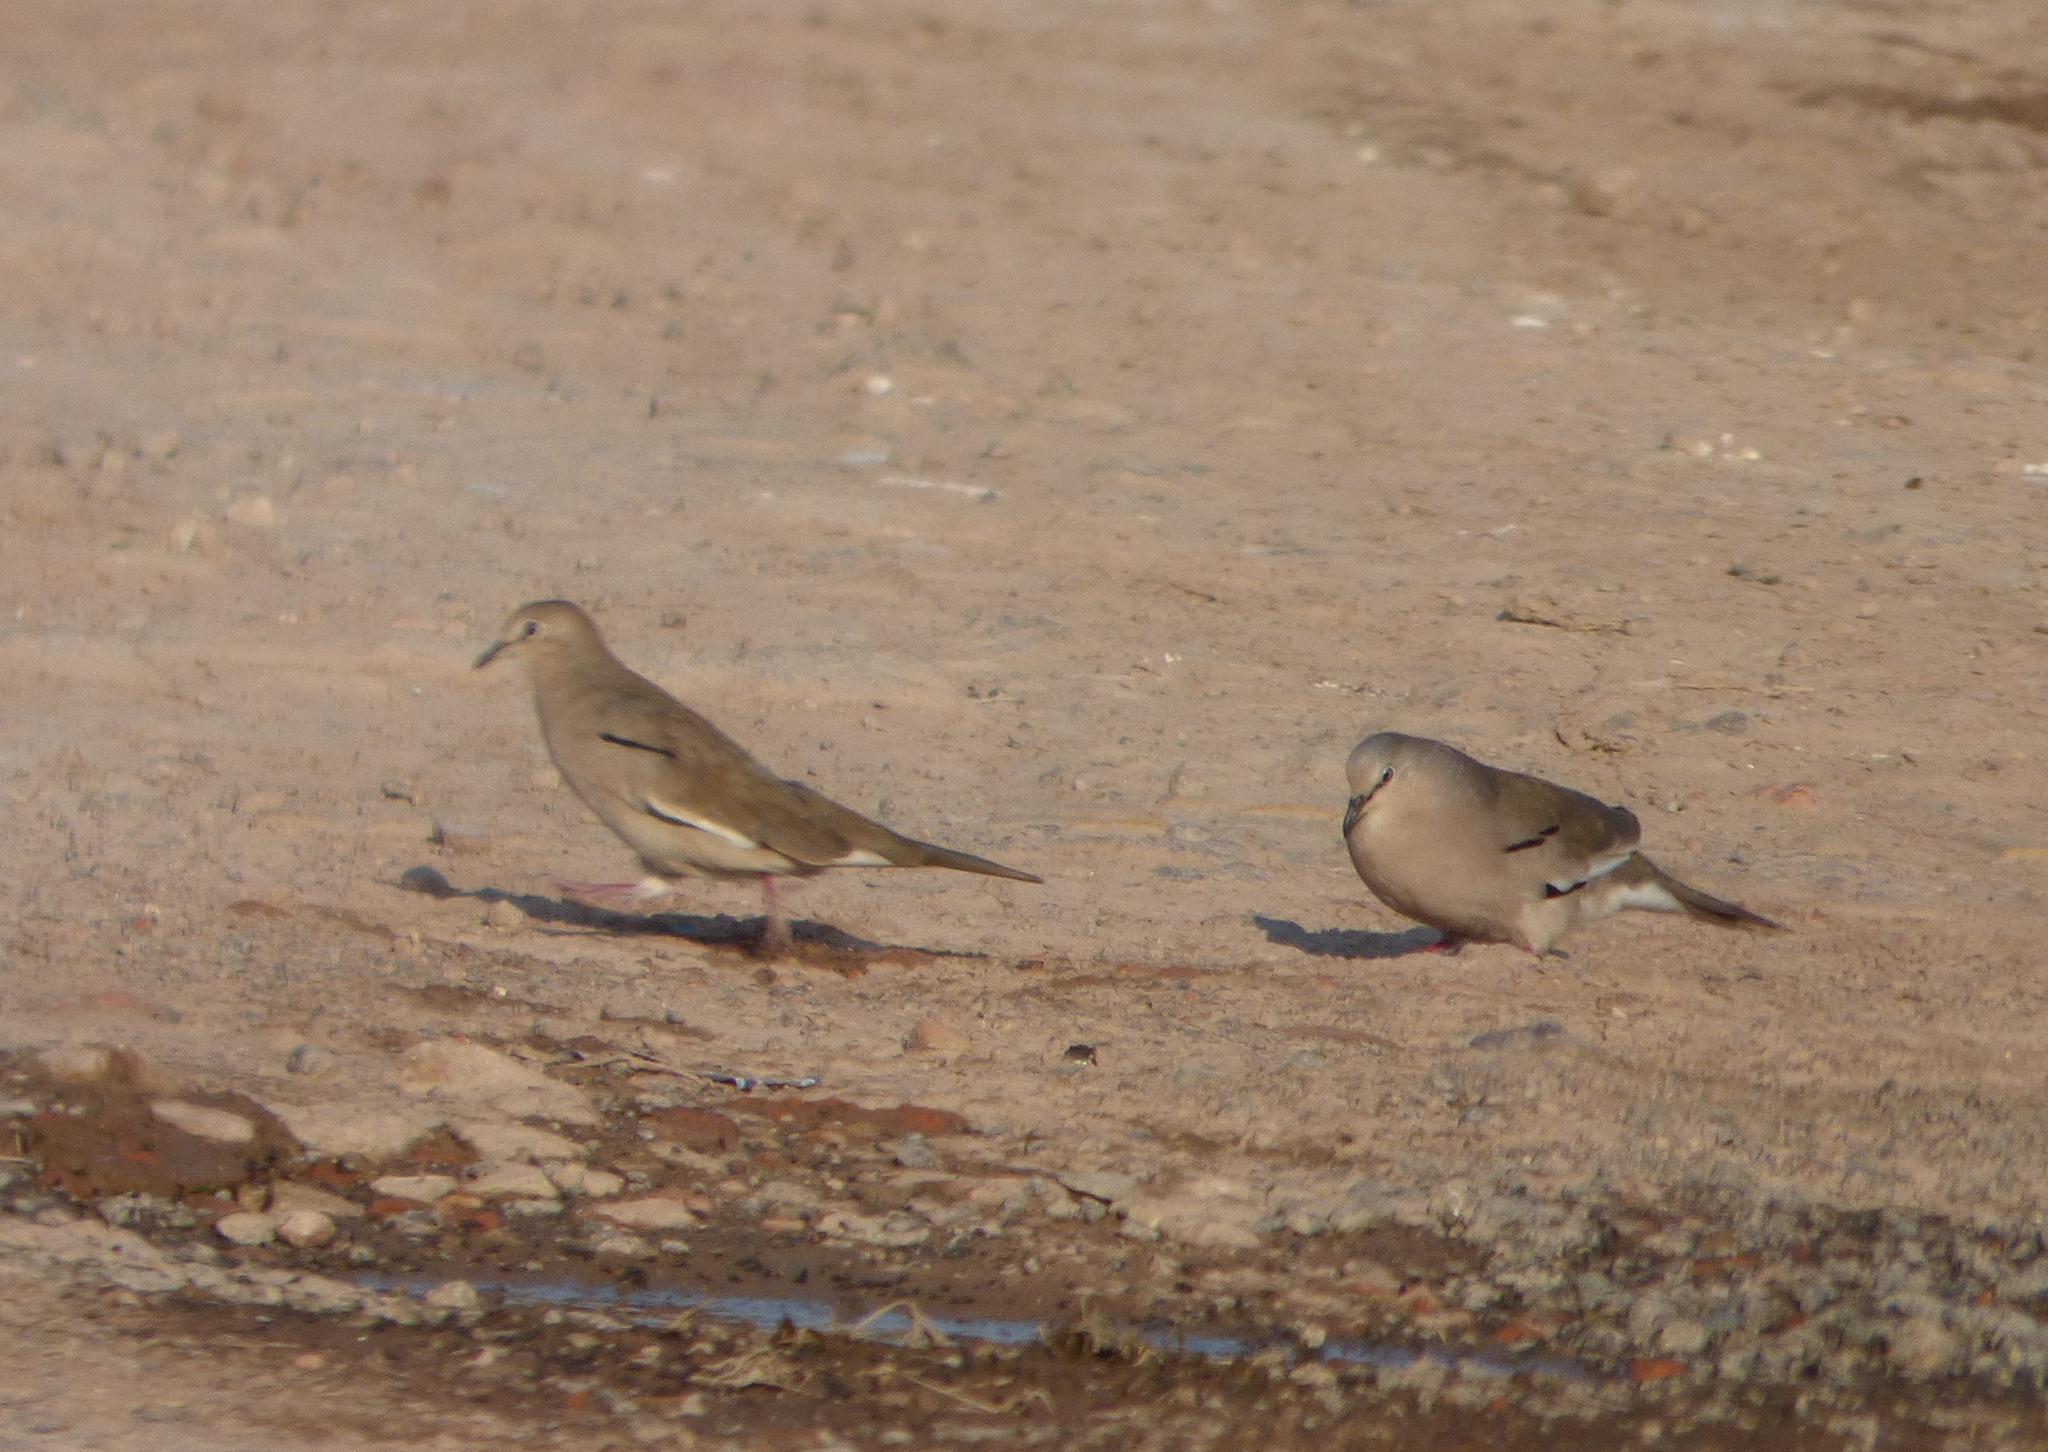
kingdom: Animalia
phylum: Chordata
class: Aves
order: Columbiformes
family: Columbidae
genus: Columbina
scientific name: Columbina picui
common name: Picui ground dove
